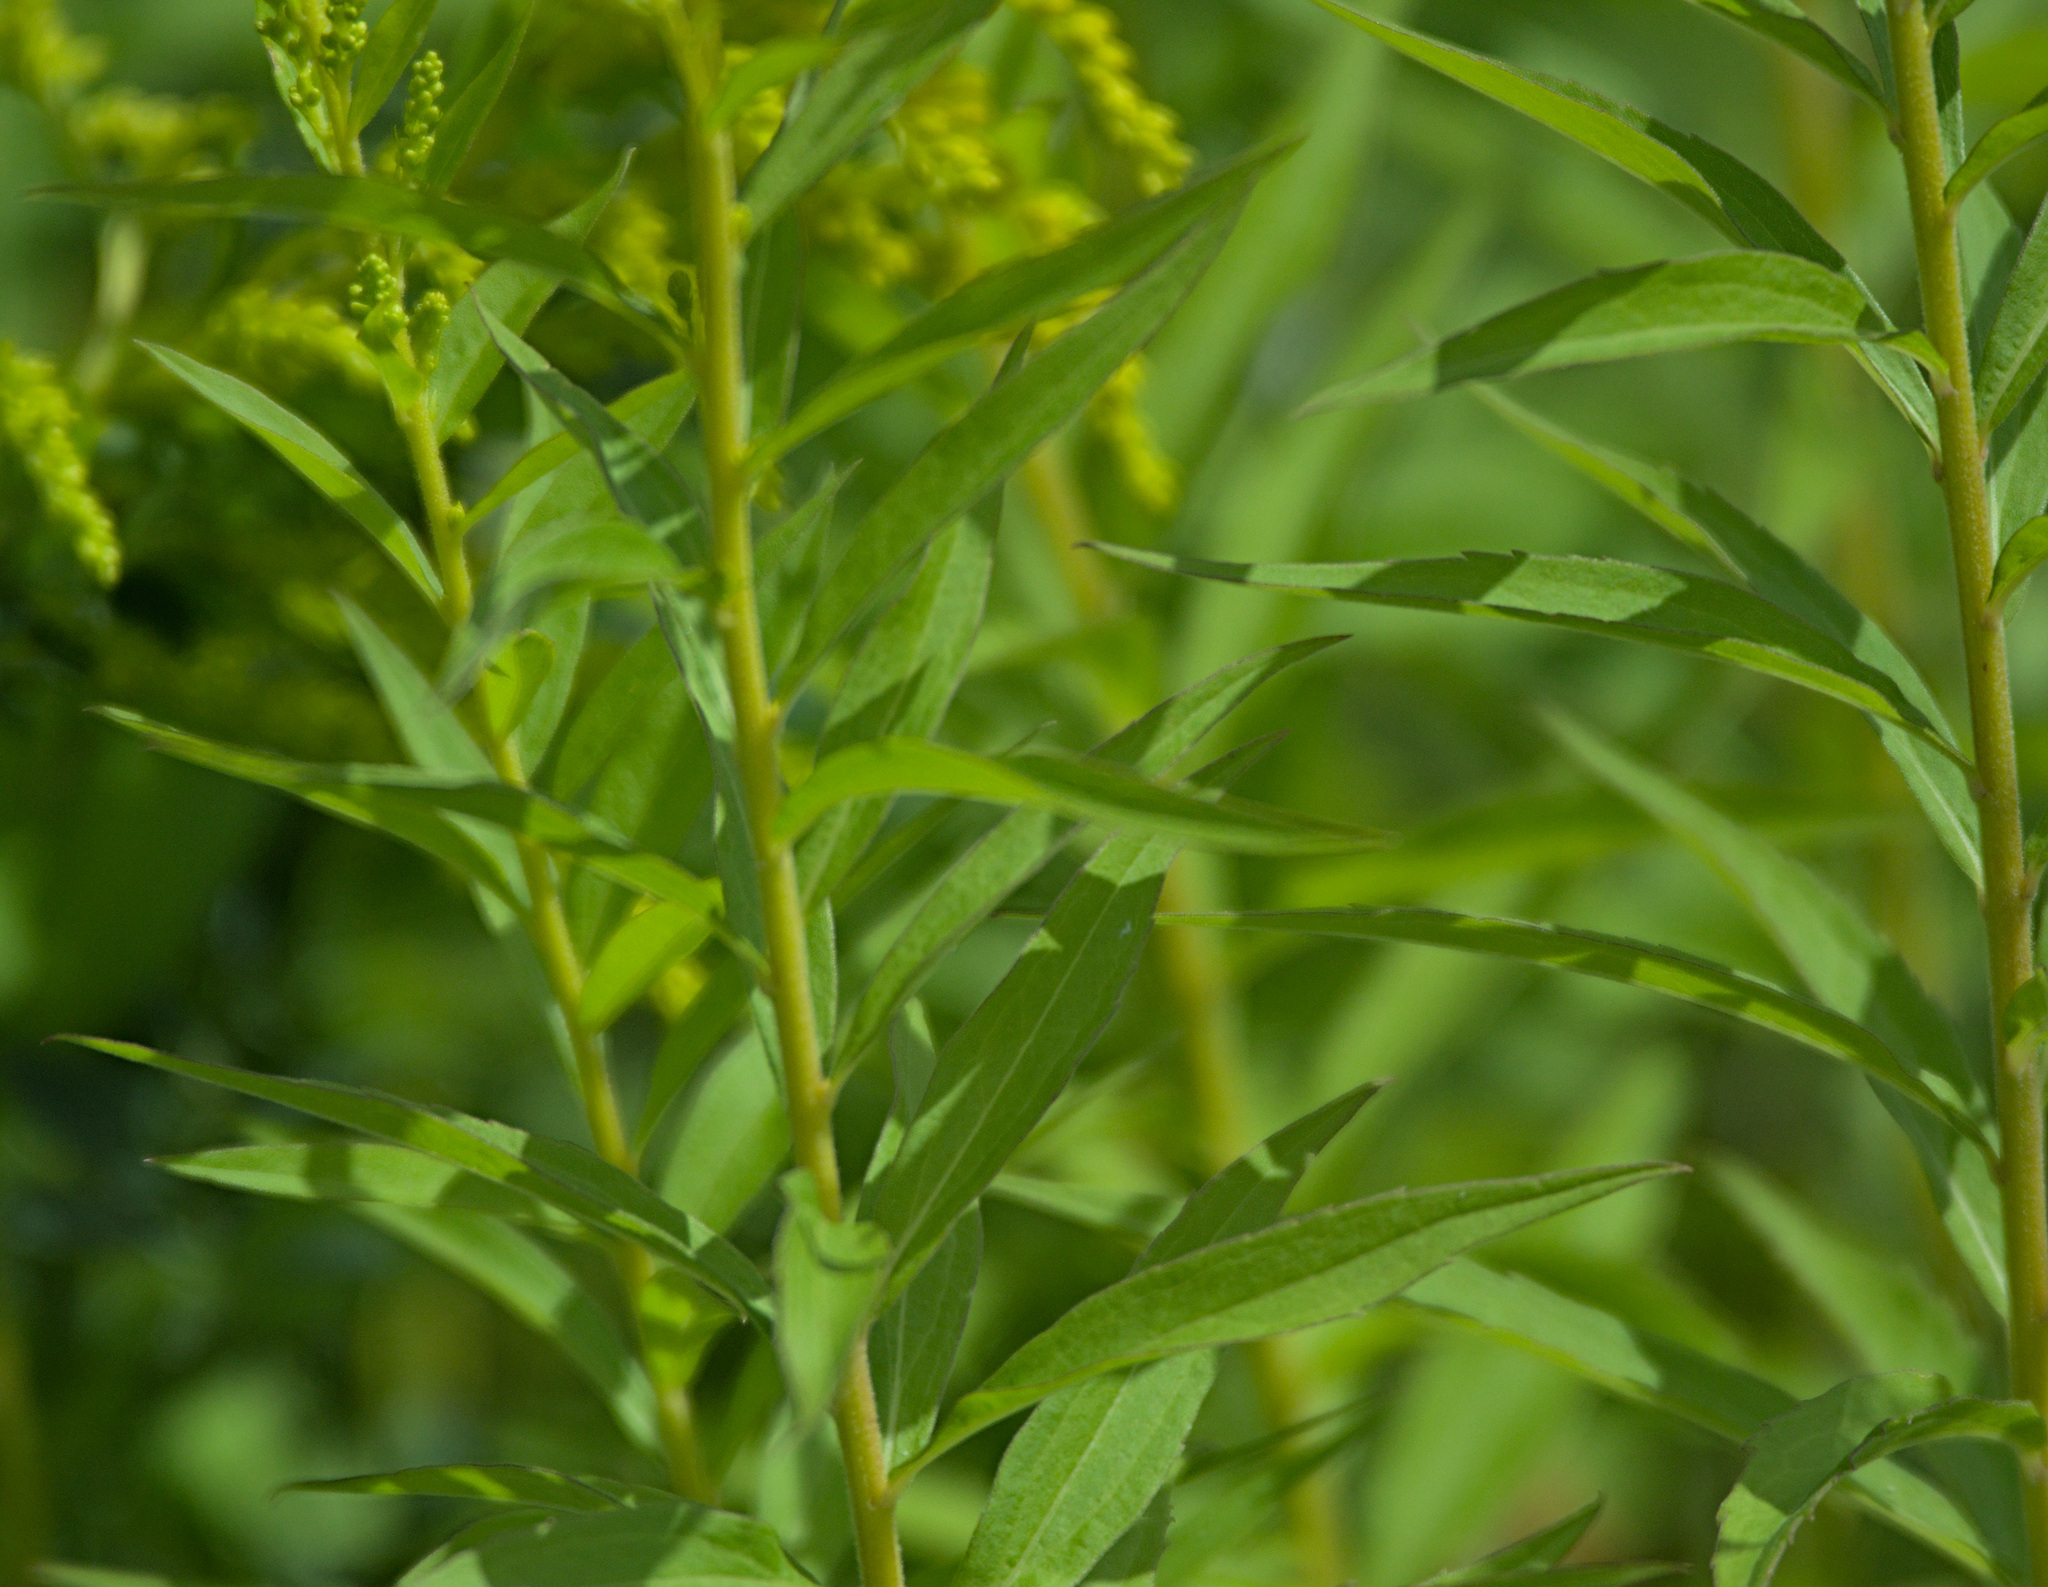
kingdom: Plantae
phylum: Tracheophyta
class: Magnoliopsida
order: Asterales
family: Asteraceae
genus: Solidago
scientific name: Solidago canadensis
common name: Canada goldenrod
